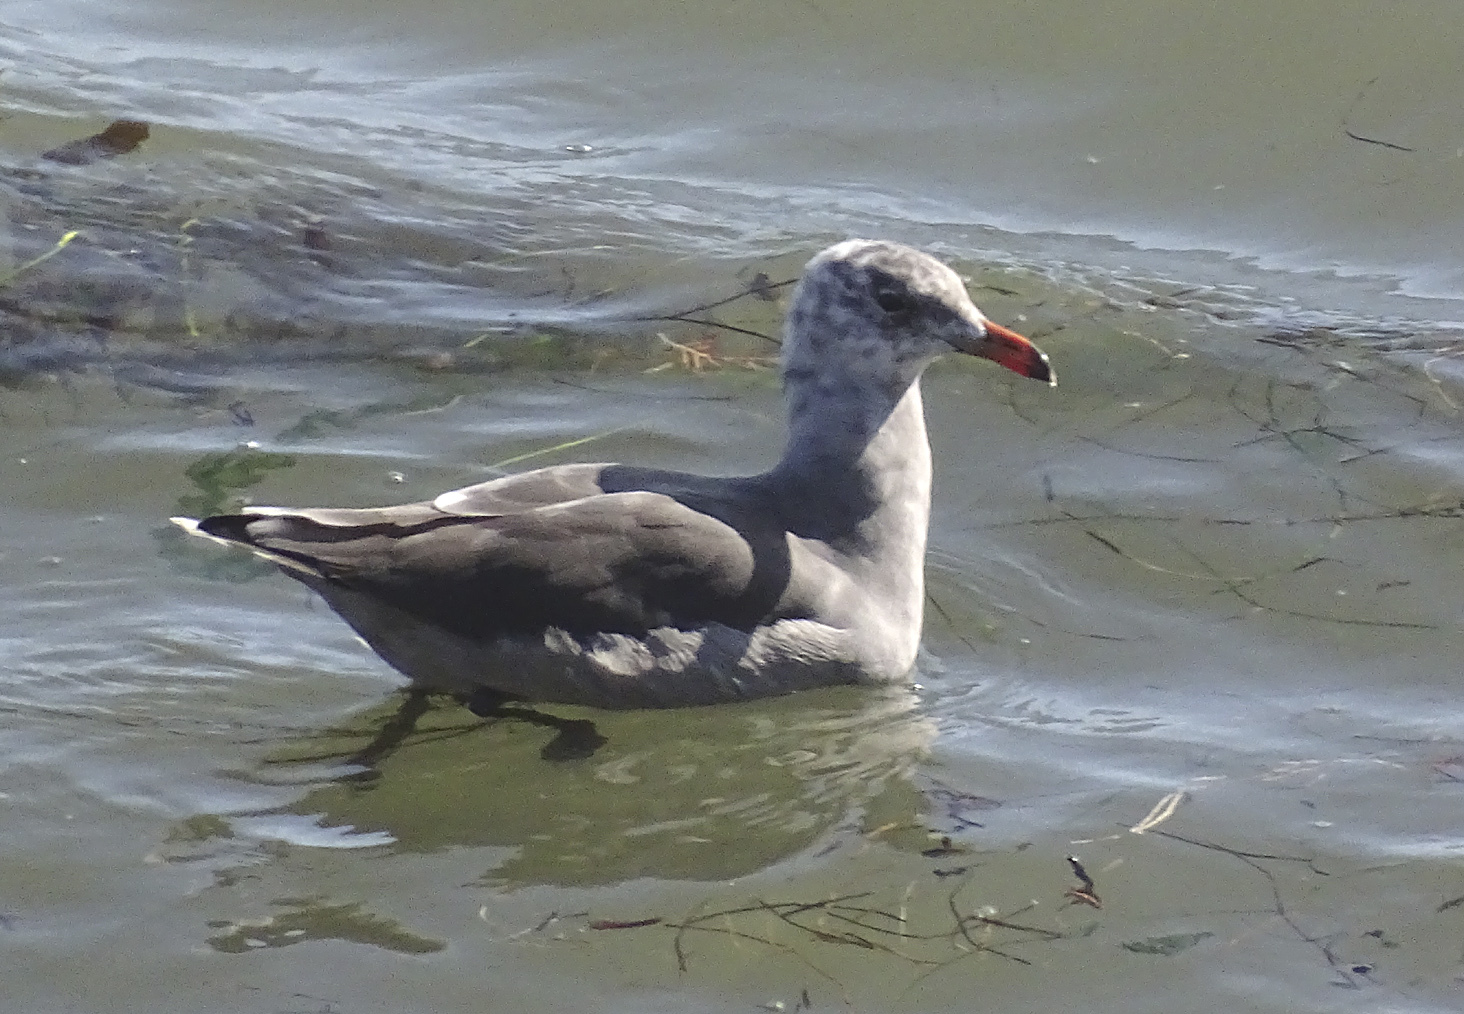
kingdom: Animalia
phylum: Chordata
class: Aves
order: Charadriiformes
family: Laridae
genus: Larus
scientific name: Larus heermanni
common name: Heermann's gull
